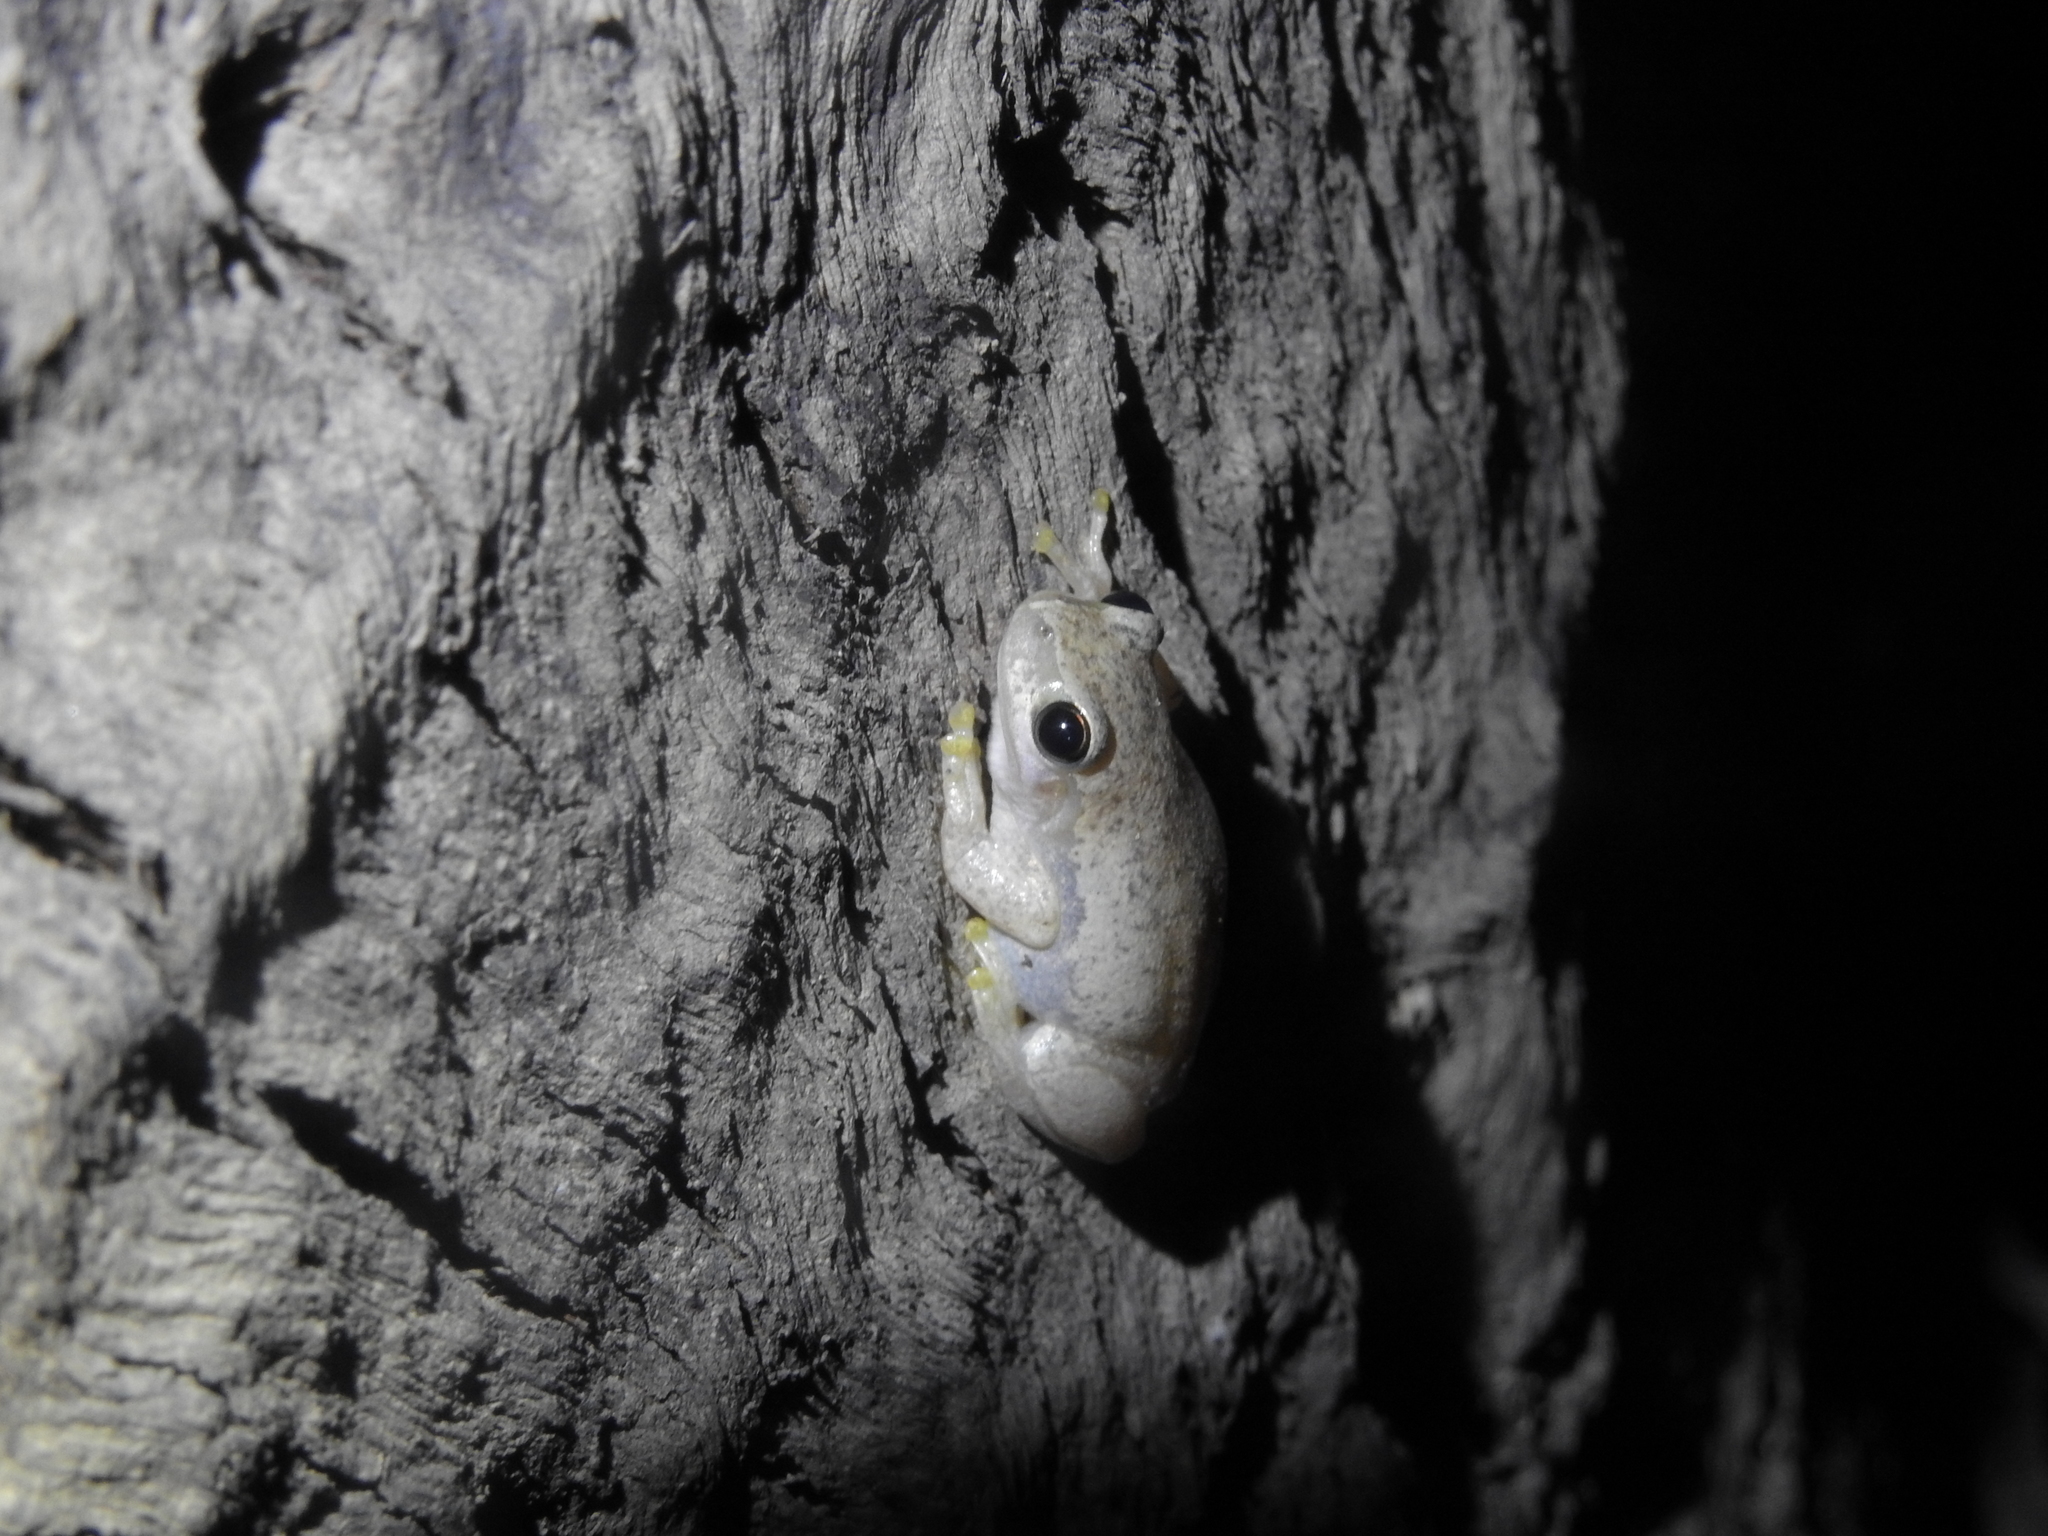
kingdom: Animalia
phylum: Chordata
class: Amphibia
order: Anura
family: Pelodryadidae
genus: Litoria
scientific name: Litoria rubella
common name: Desert tree frog
